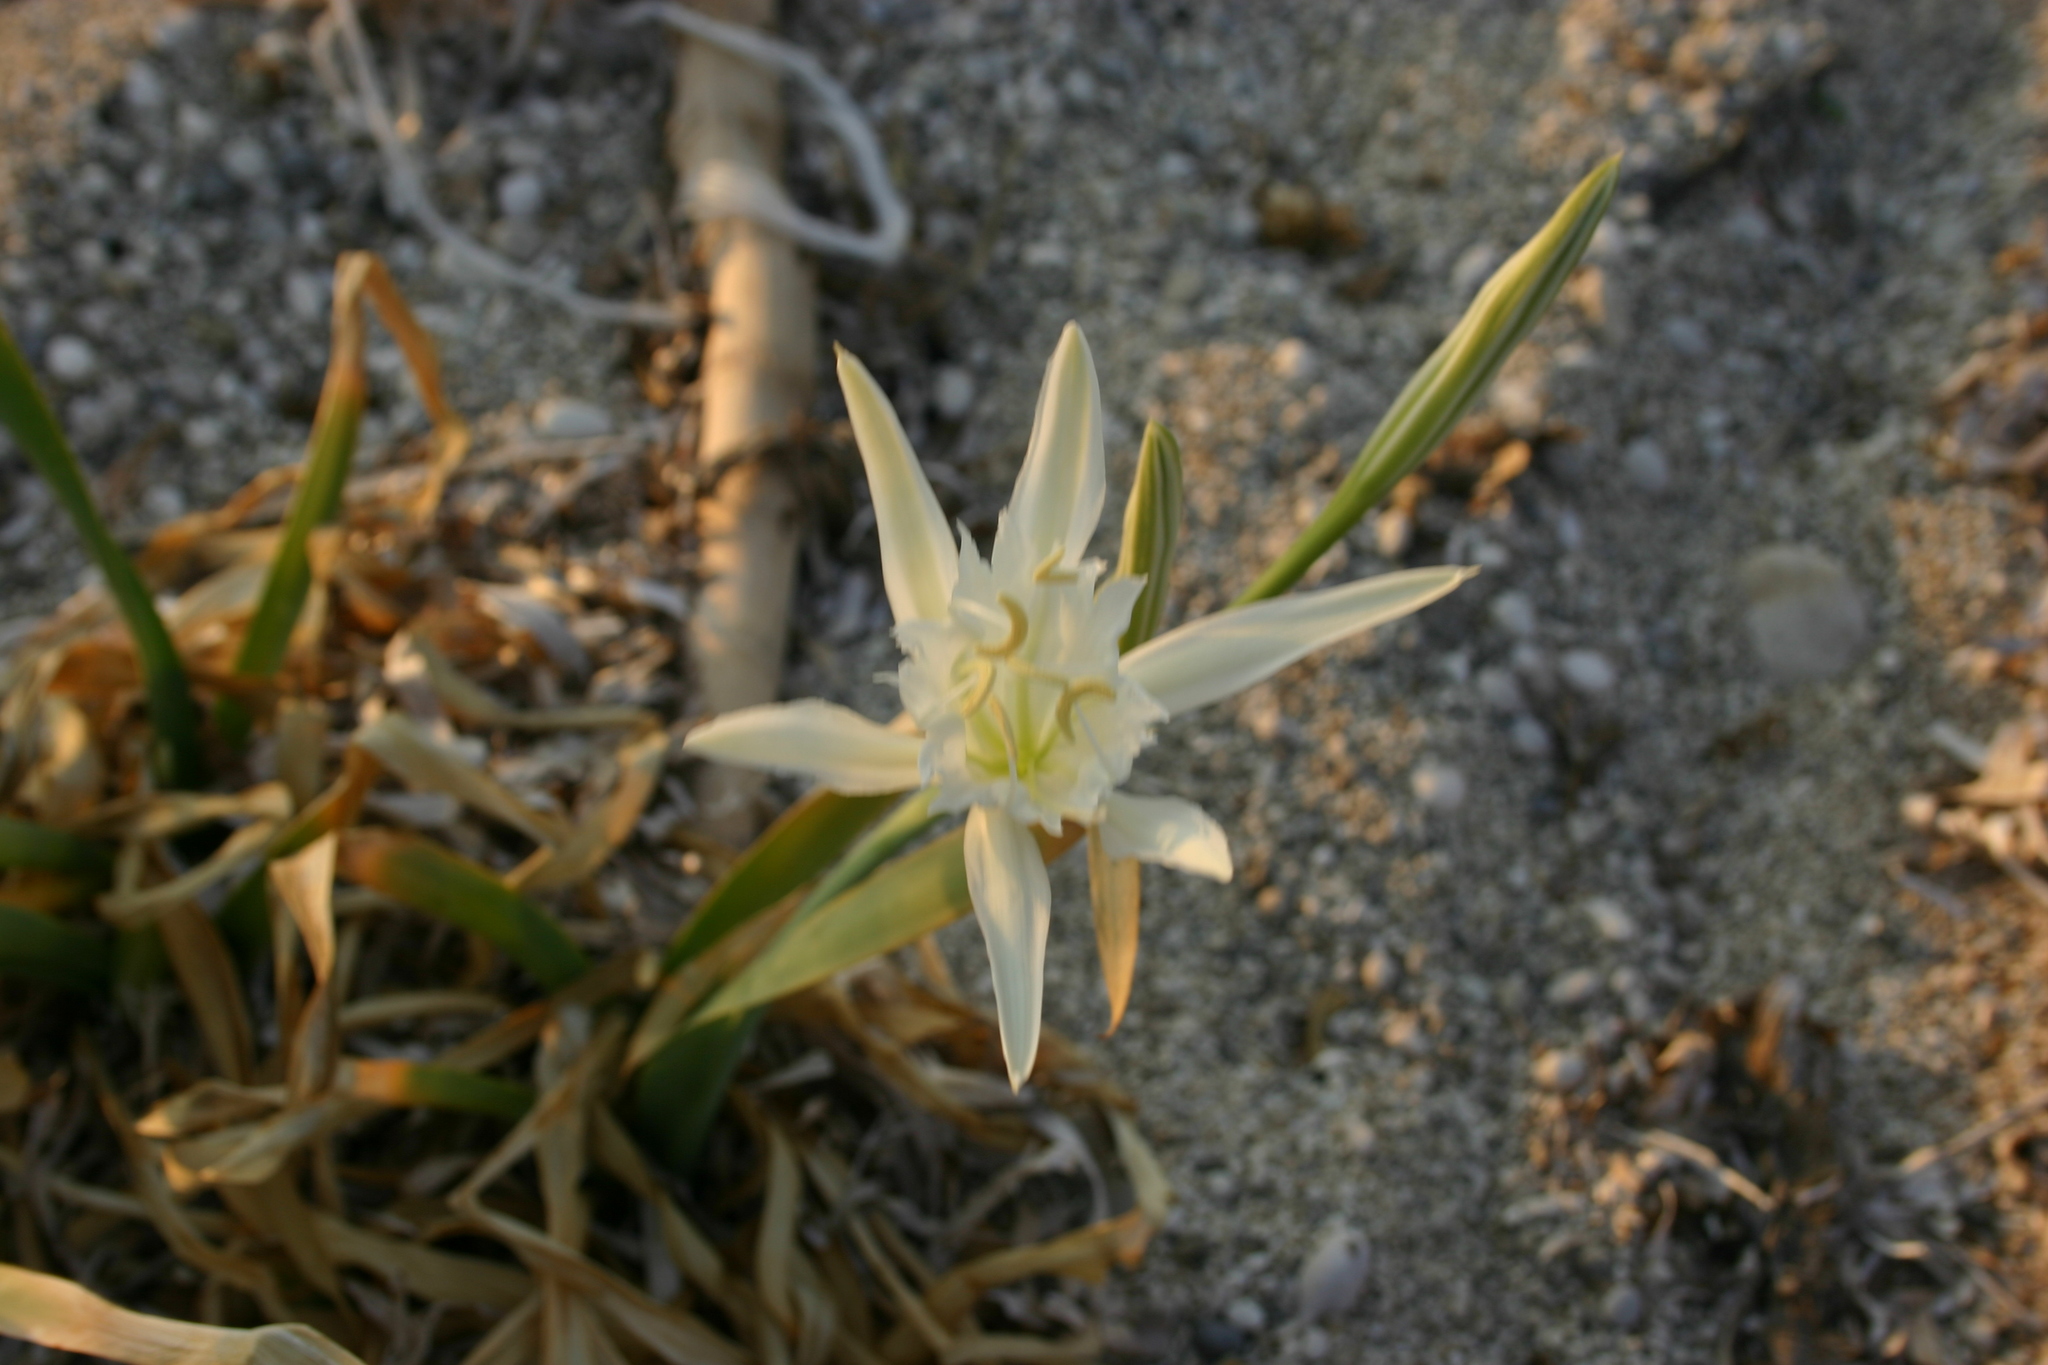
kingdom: Plantae
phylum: Tracheophyta
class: Liliopsida
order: Asparagales
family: Amaryllidaceae
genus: Pancratium
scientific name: Pancratium maritimum
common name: Sea-daffodil
